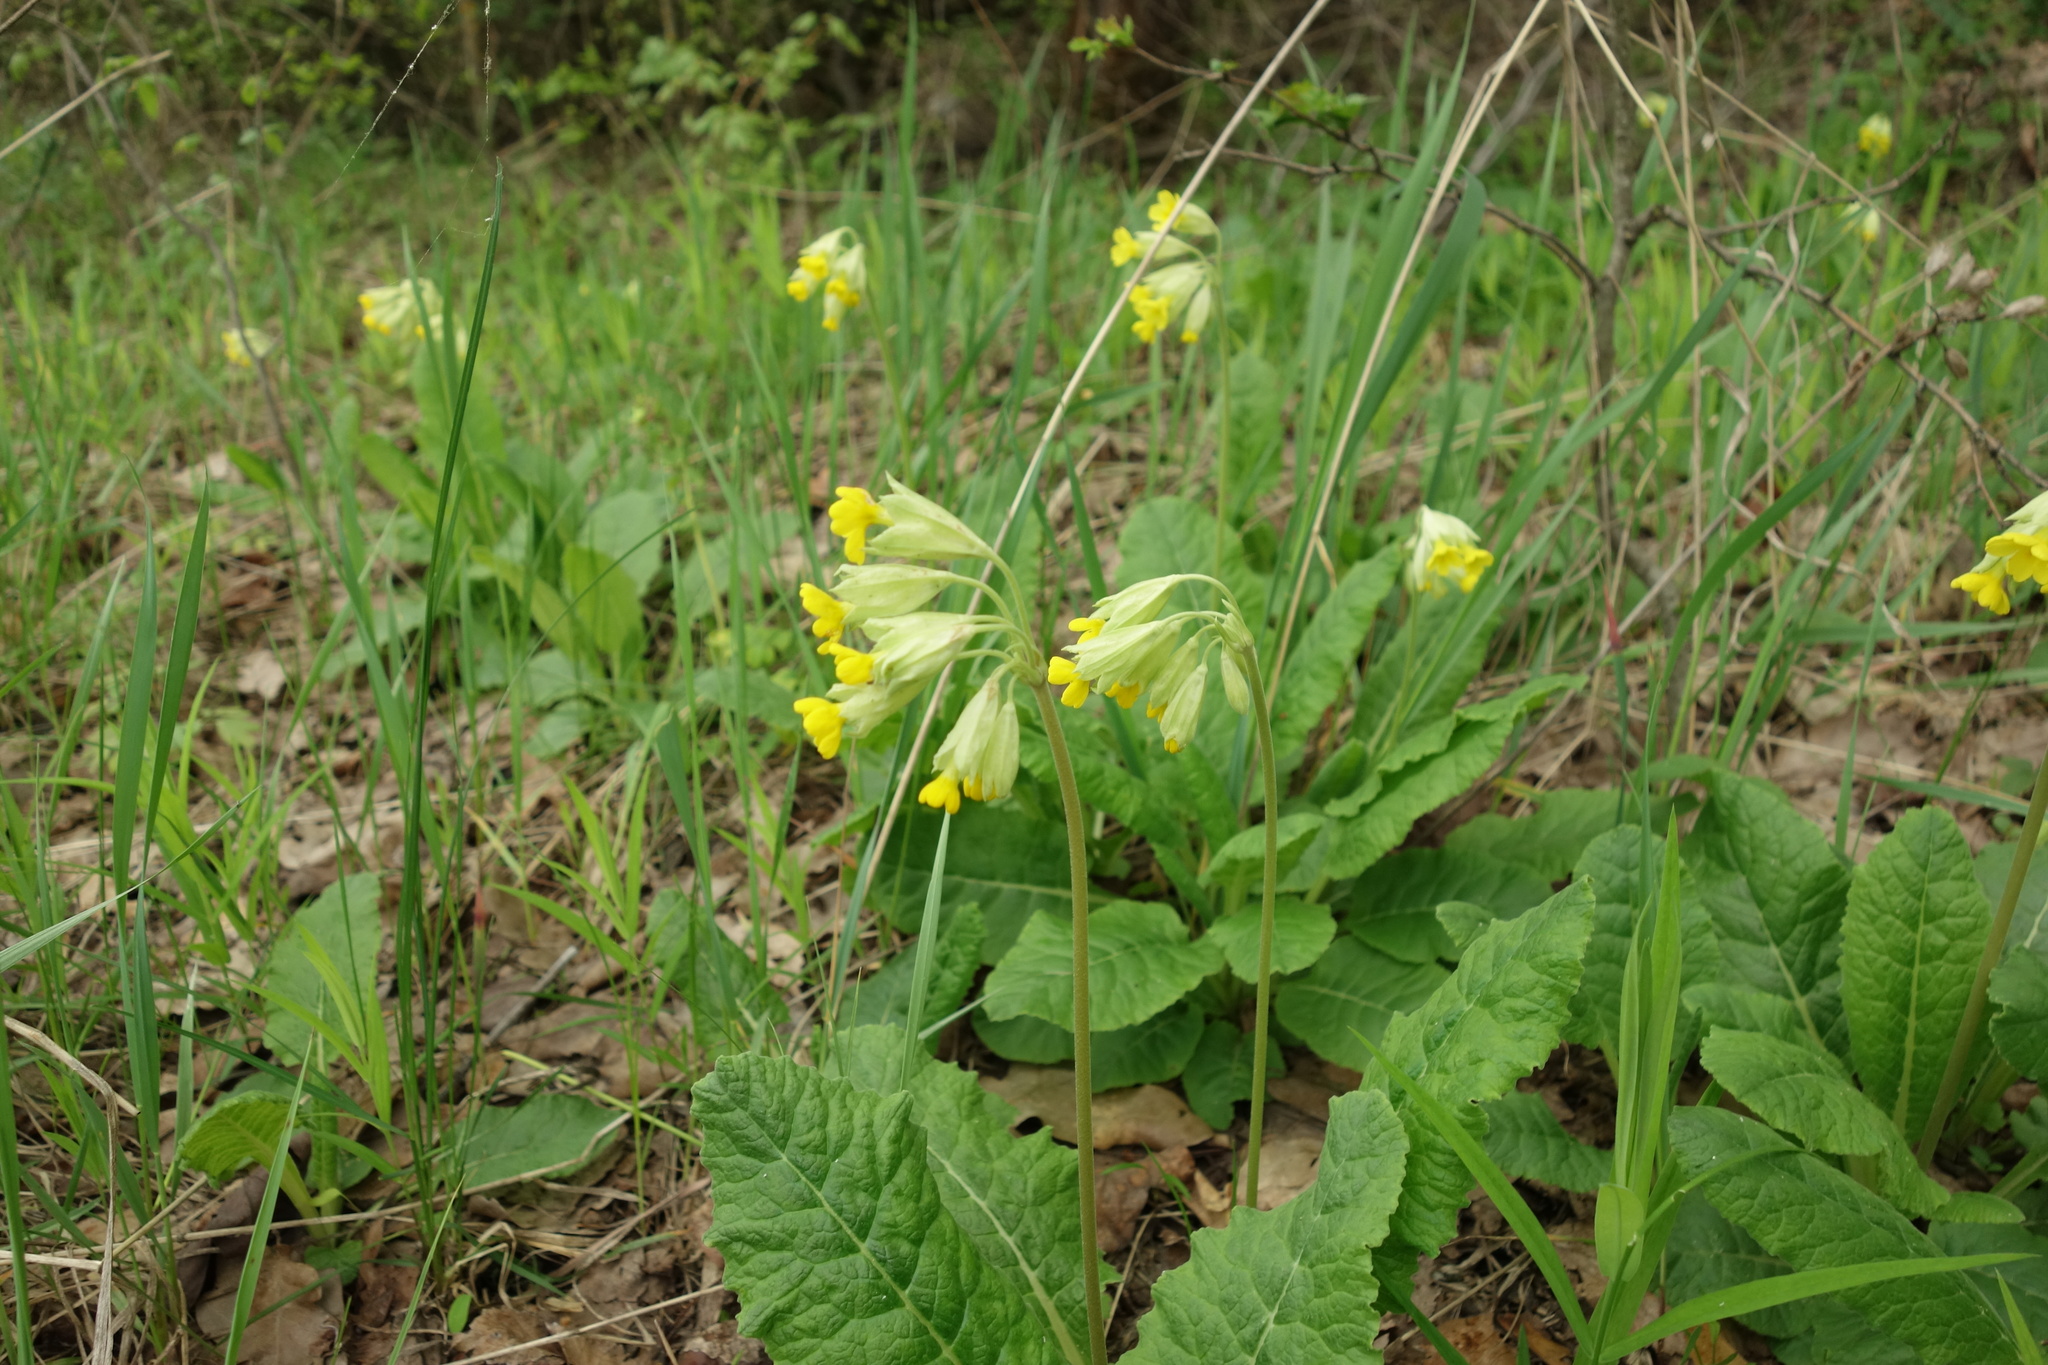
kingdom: Plantae
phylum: Tracheophyta
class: Magnoliopsida
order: Ericales
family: Primulaceae
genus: Primula
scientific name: Primula veris
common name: Cowslip
